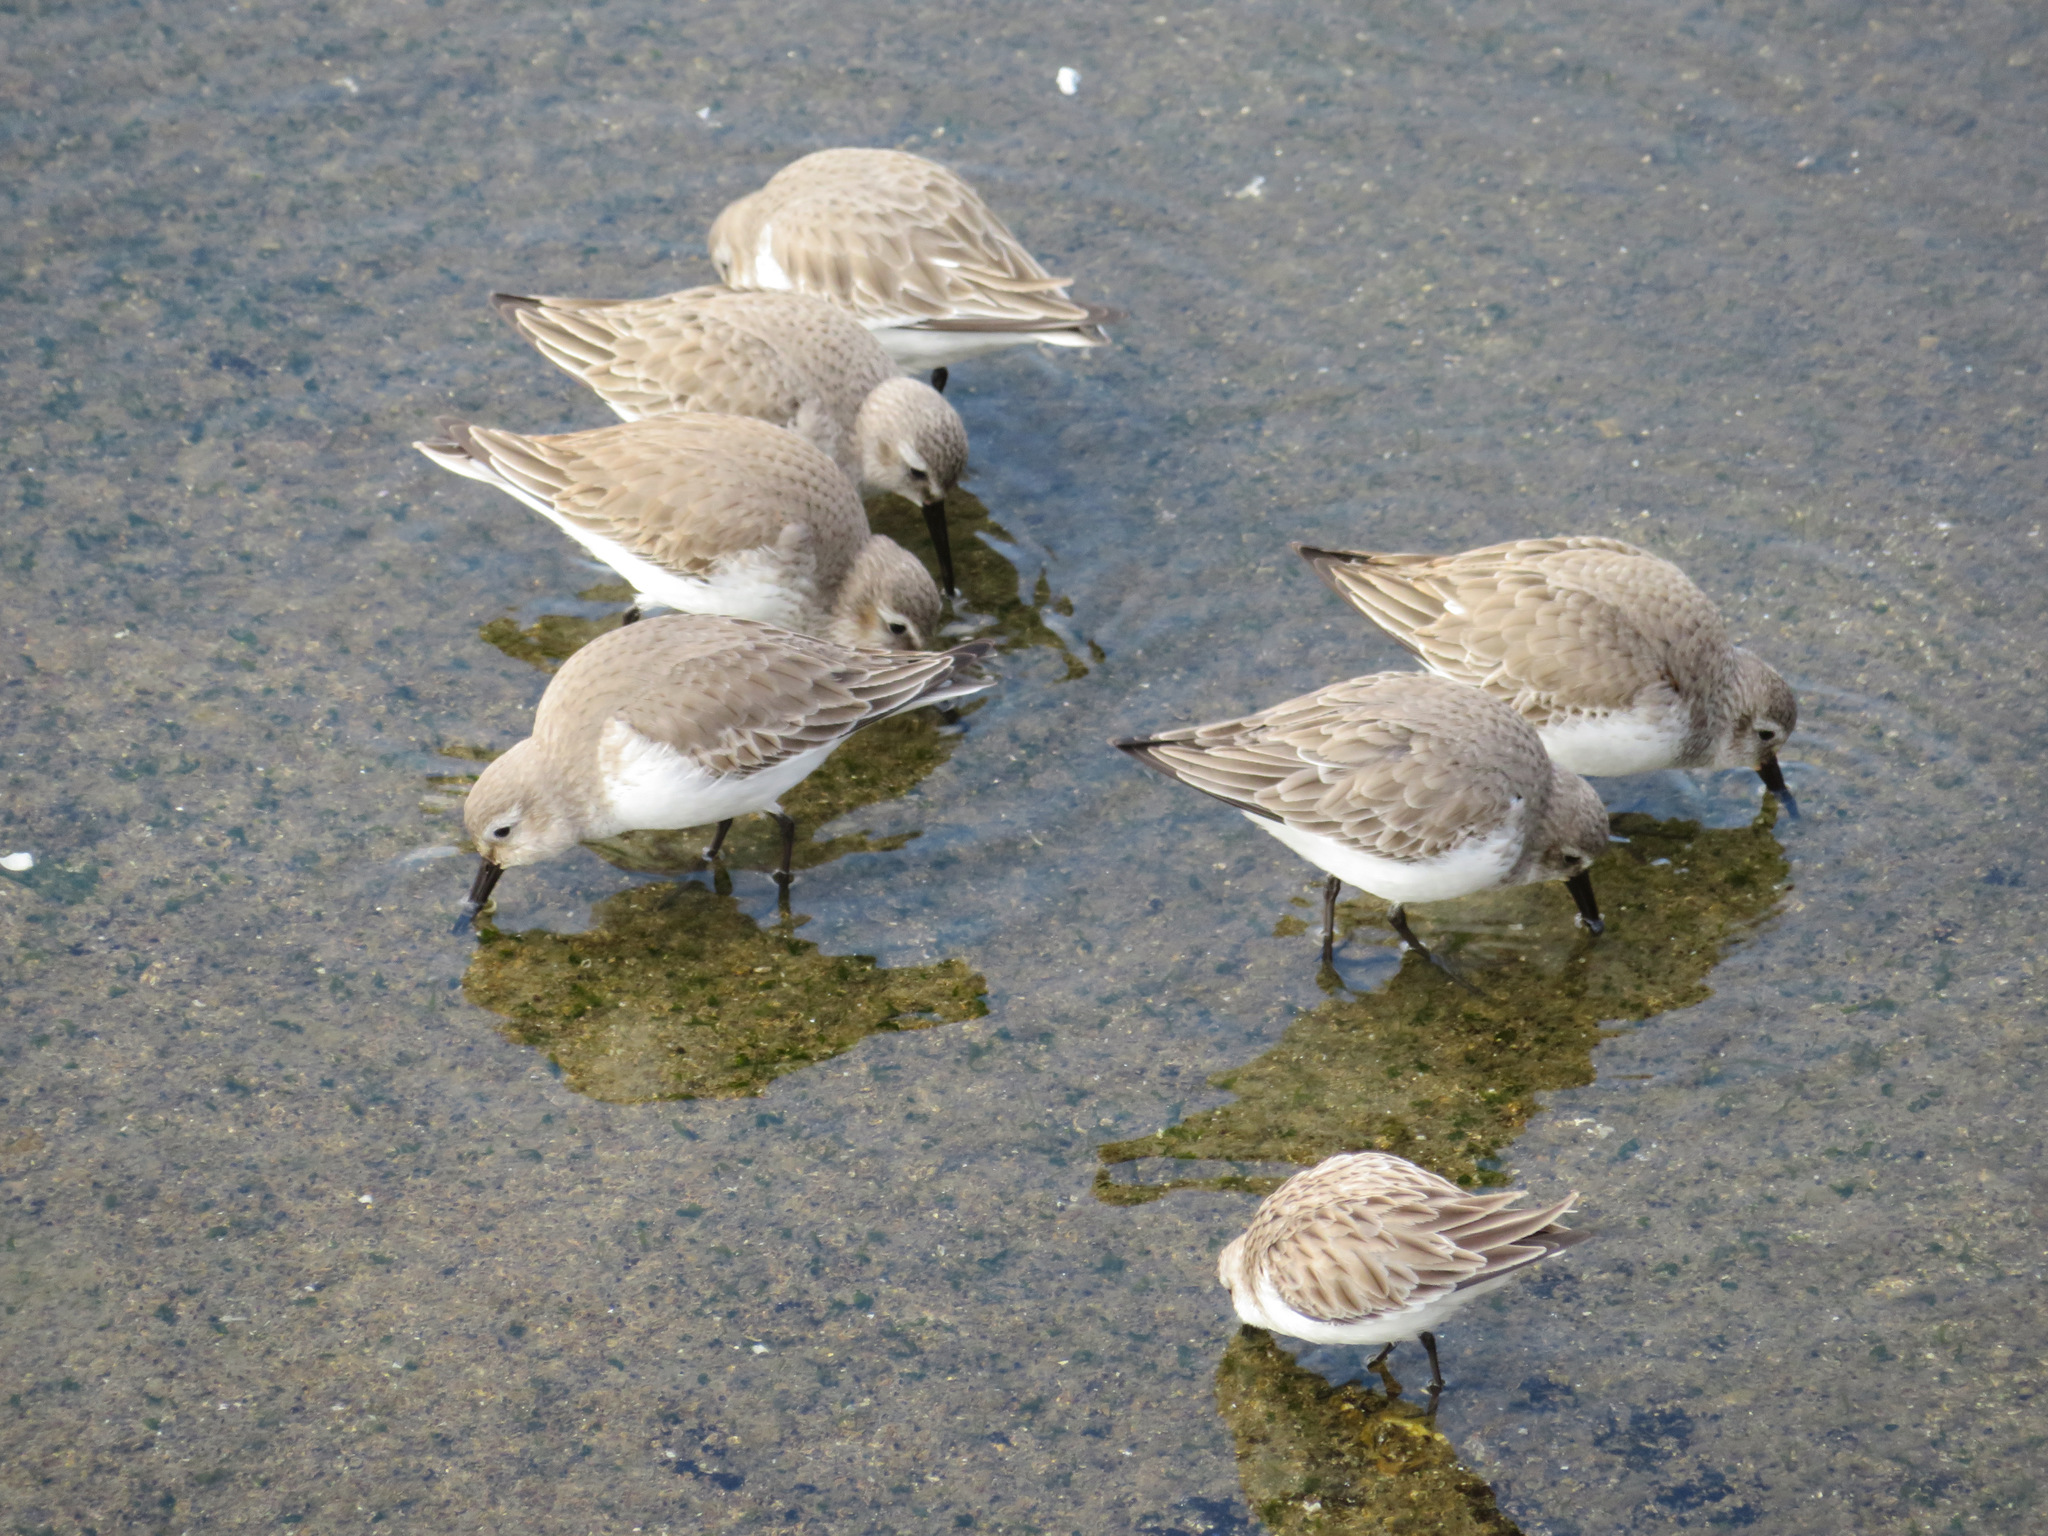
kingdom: Animalia
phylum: Chordata
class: Aves
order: Charadriiformes
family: Scolopacidae
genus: Calidris
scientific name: Calidris alpina
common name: Dunlin
